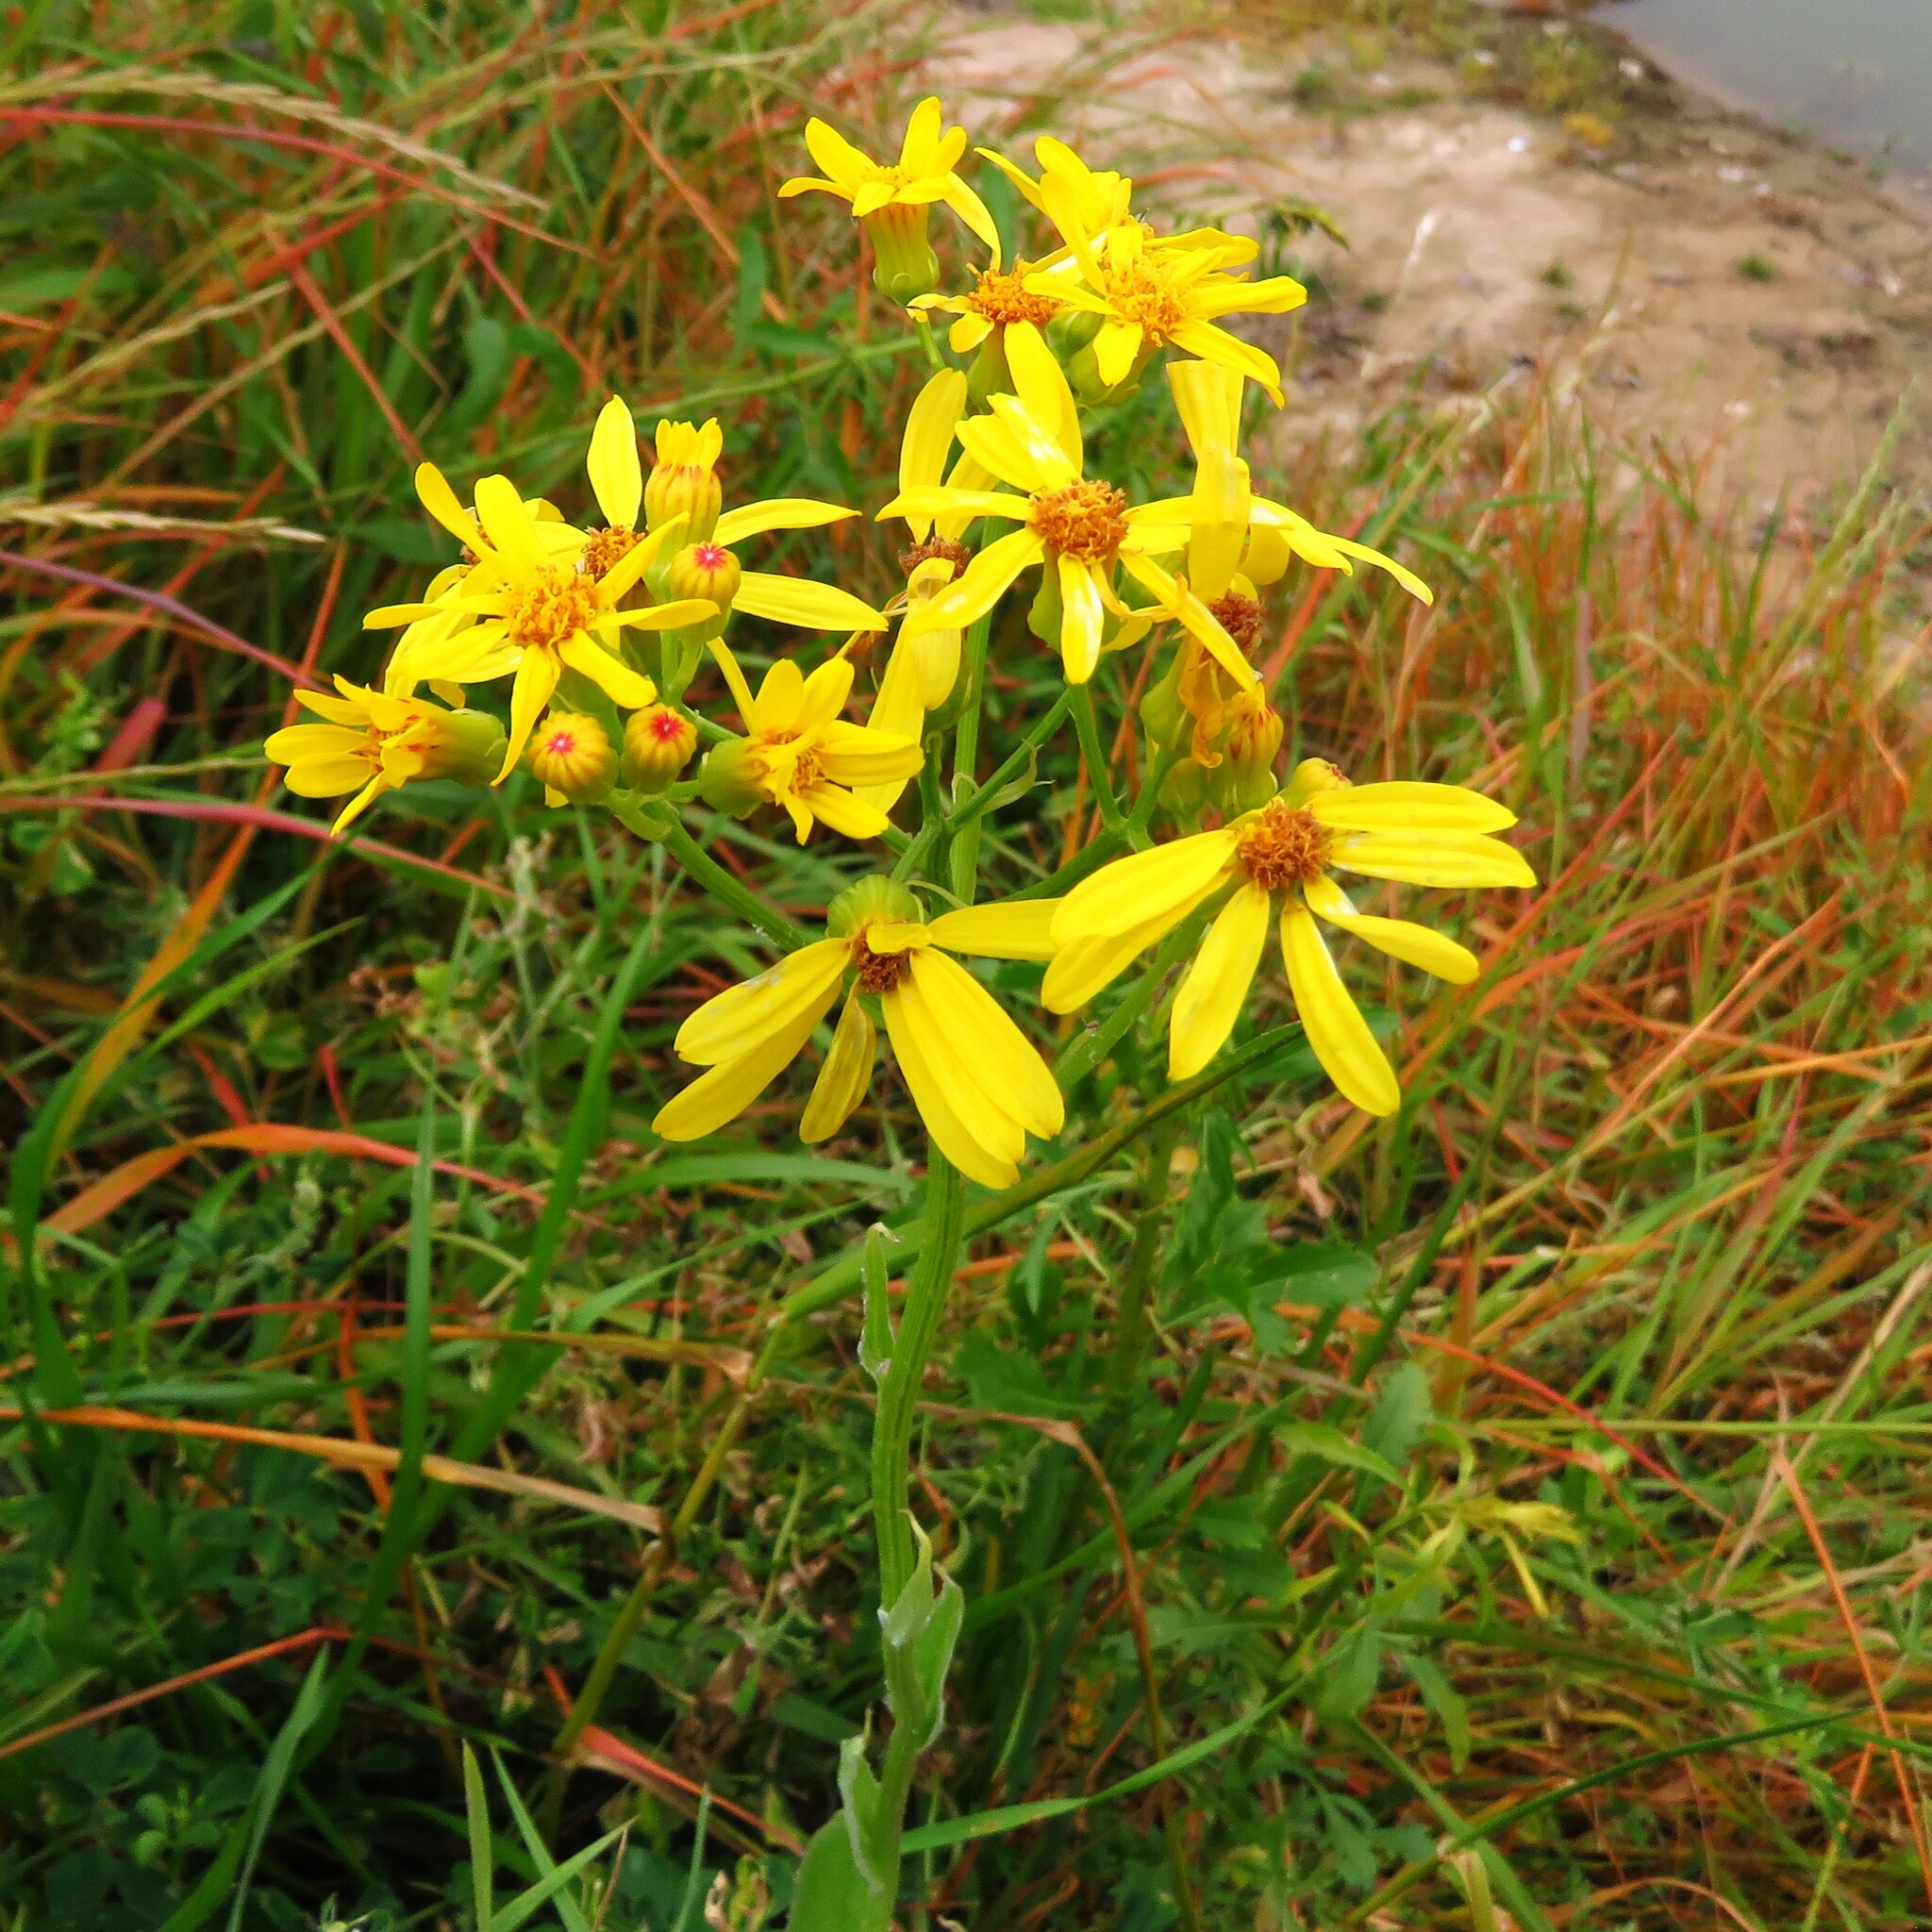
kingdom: Plantae
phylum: Tracheophyta
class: Magnoliopsida
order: Asterales
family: Asteraceae
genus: Senecio
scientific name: Senecio ampullaceus
